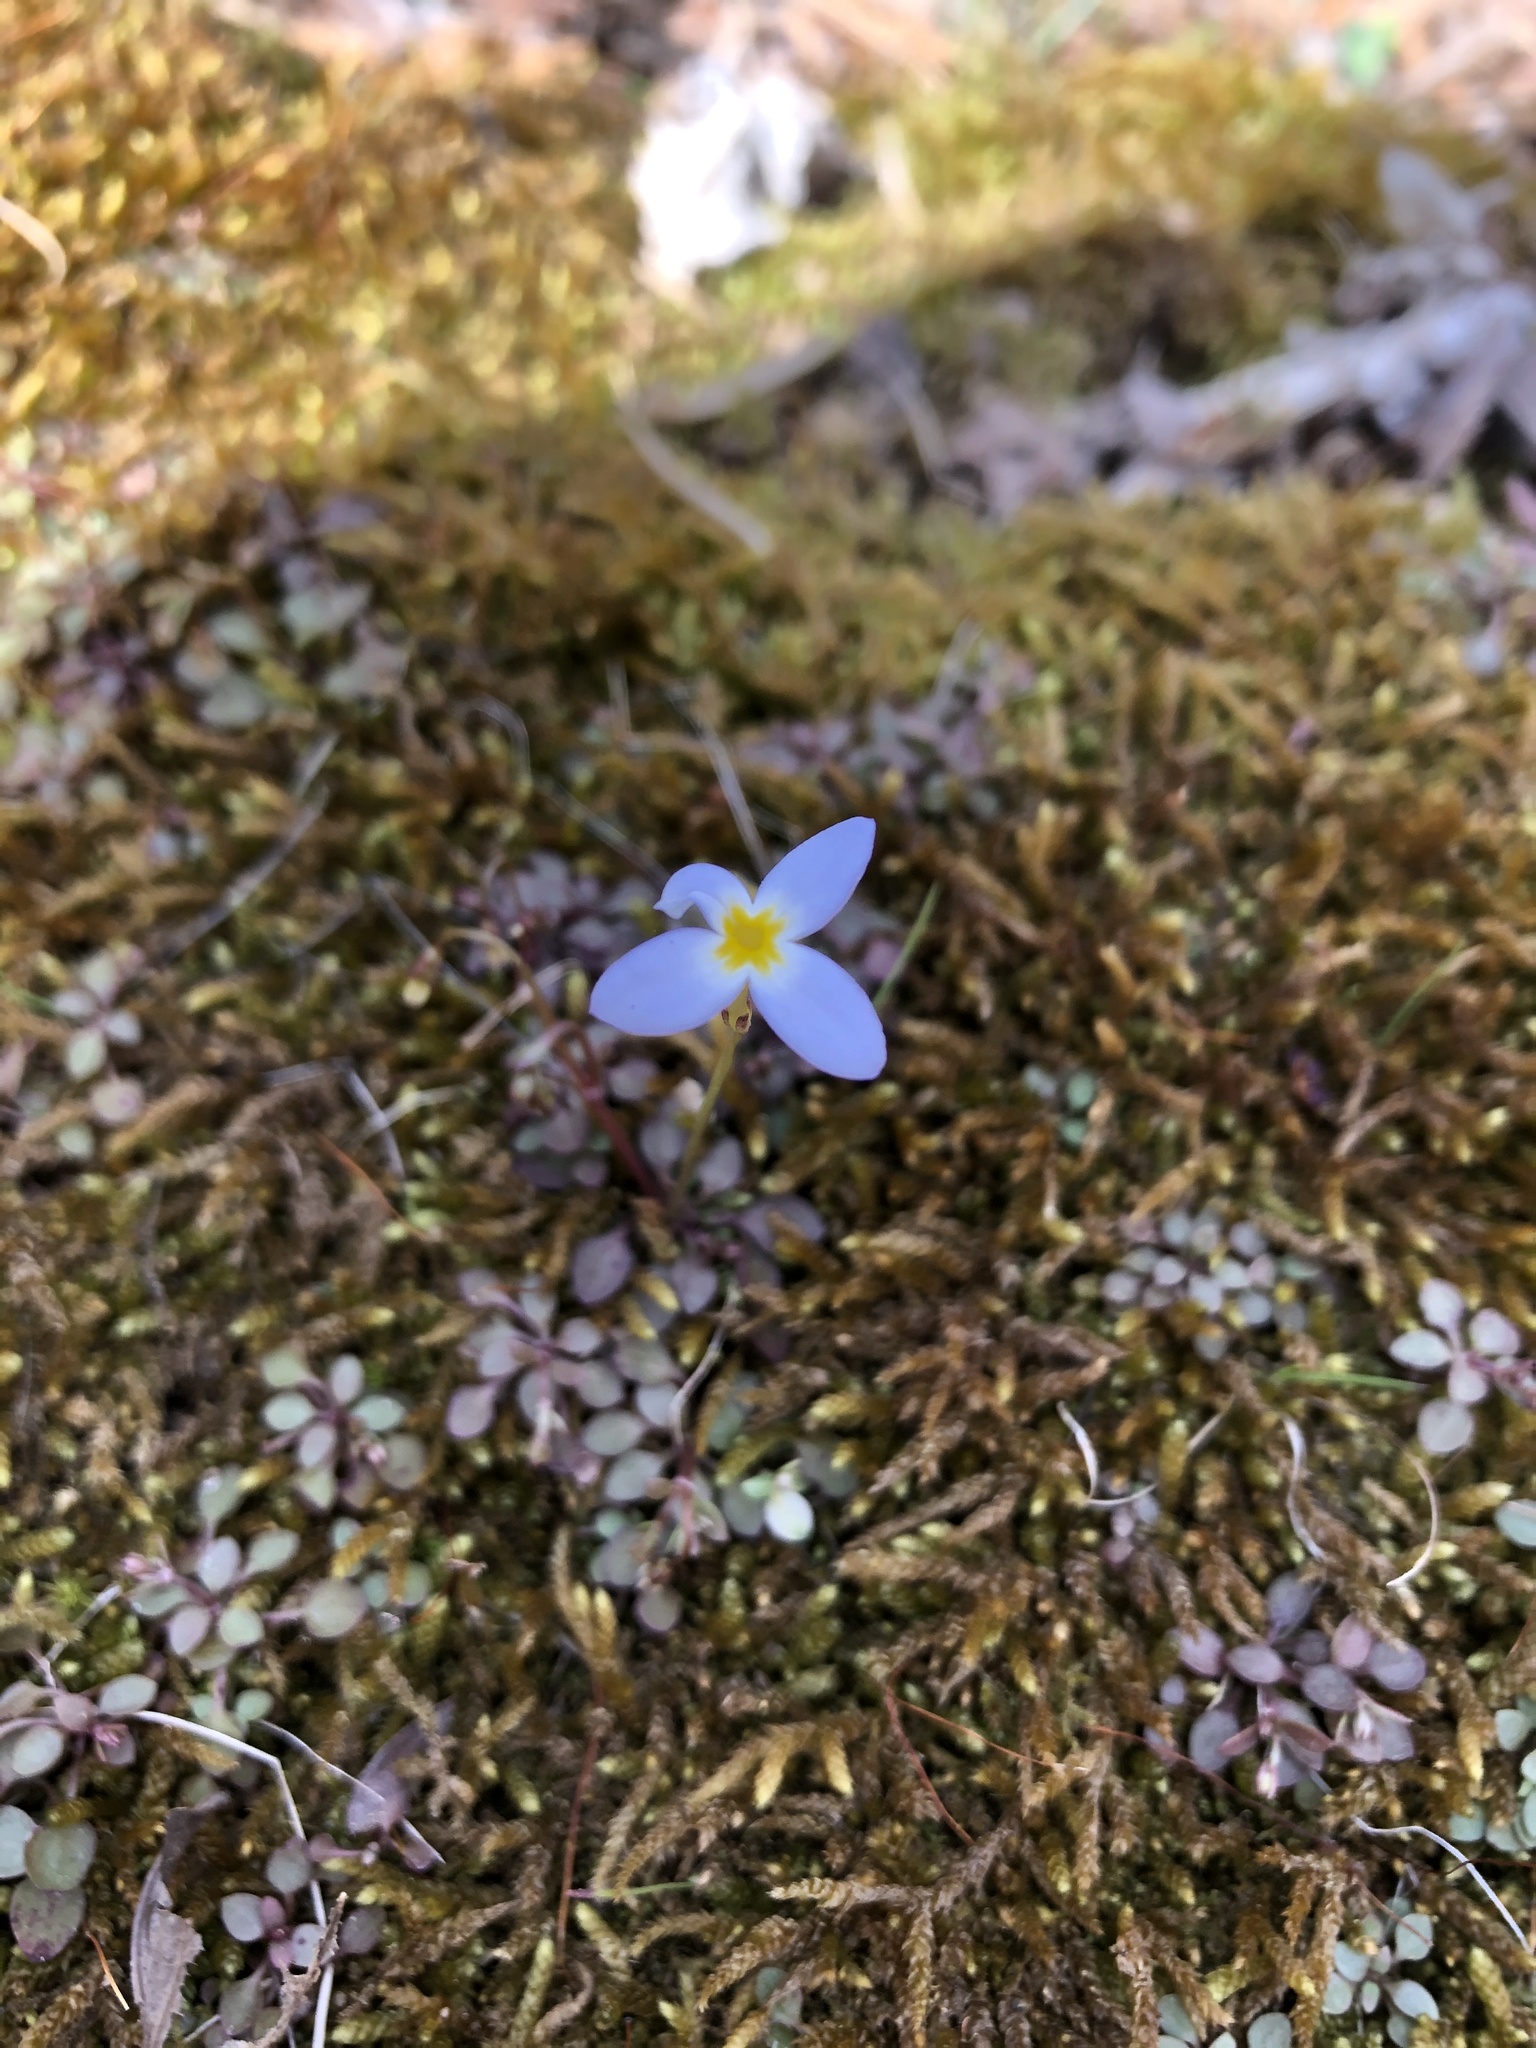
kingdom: Plantae
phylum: Tracheophyta
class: Magnoliopsida
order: Gentianales
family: Rubiaceae
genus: Houstonia
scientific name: Houstonia caerulea
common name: Bluets
